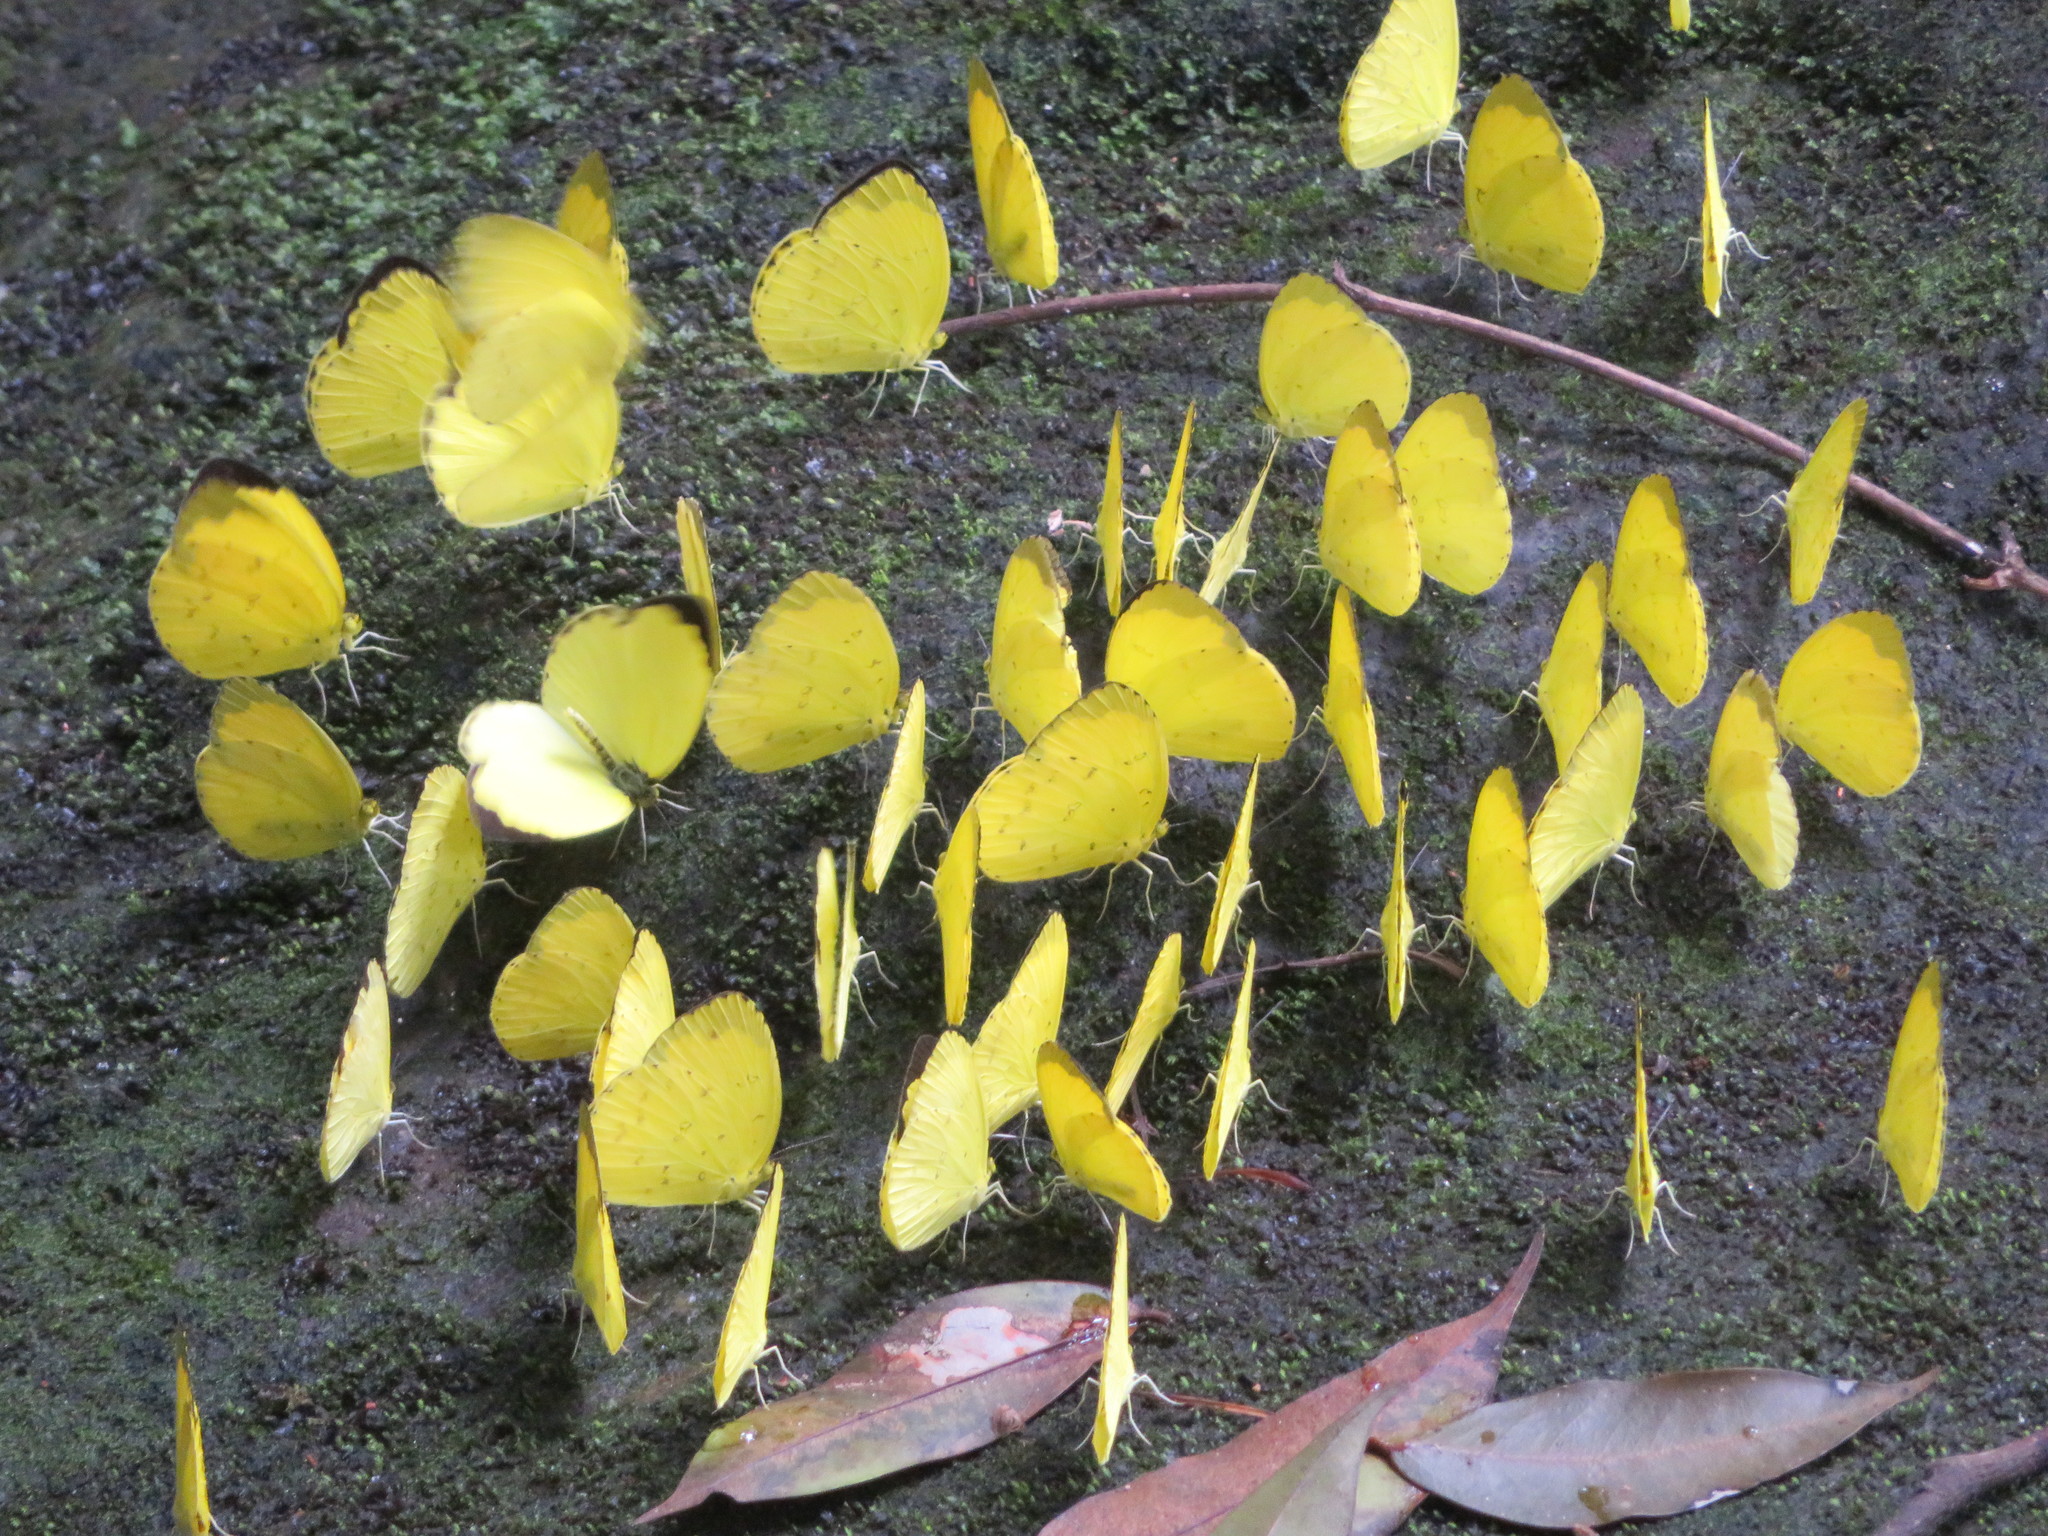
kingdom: Animalia
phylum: Arthropoda
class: Insecta
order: Lepidoptera
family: Pieridae
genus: Eurema
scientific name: Eurema senegalensis
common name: Forest grass yellow
